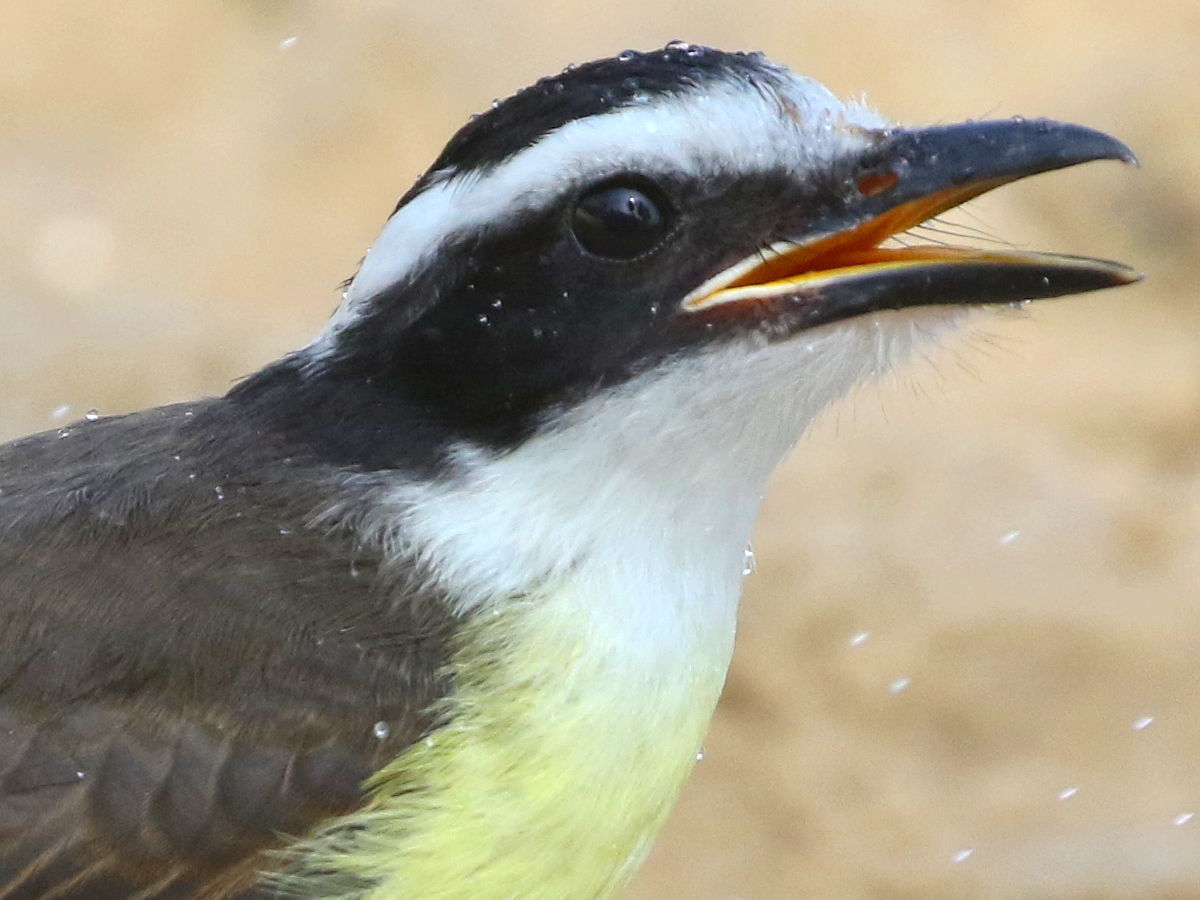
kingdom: Animalia
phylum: Chordata
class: Aves
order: Passeriformes
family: Tyrannidae
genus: Pitangus
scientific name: Pitangus sulphuratus
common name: Great kiskadee
